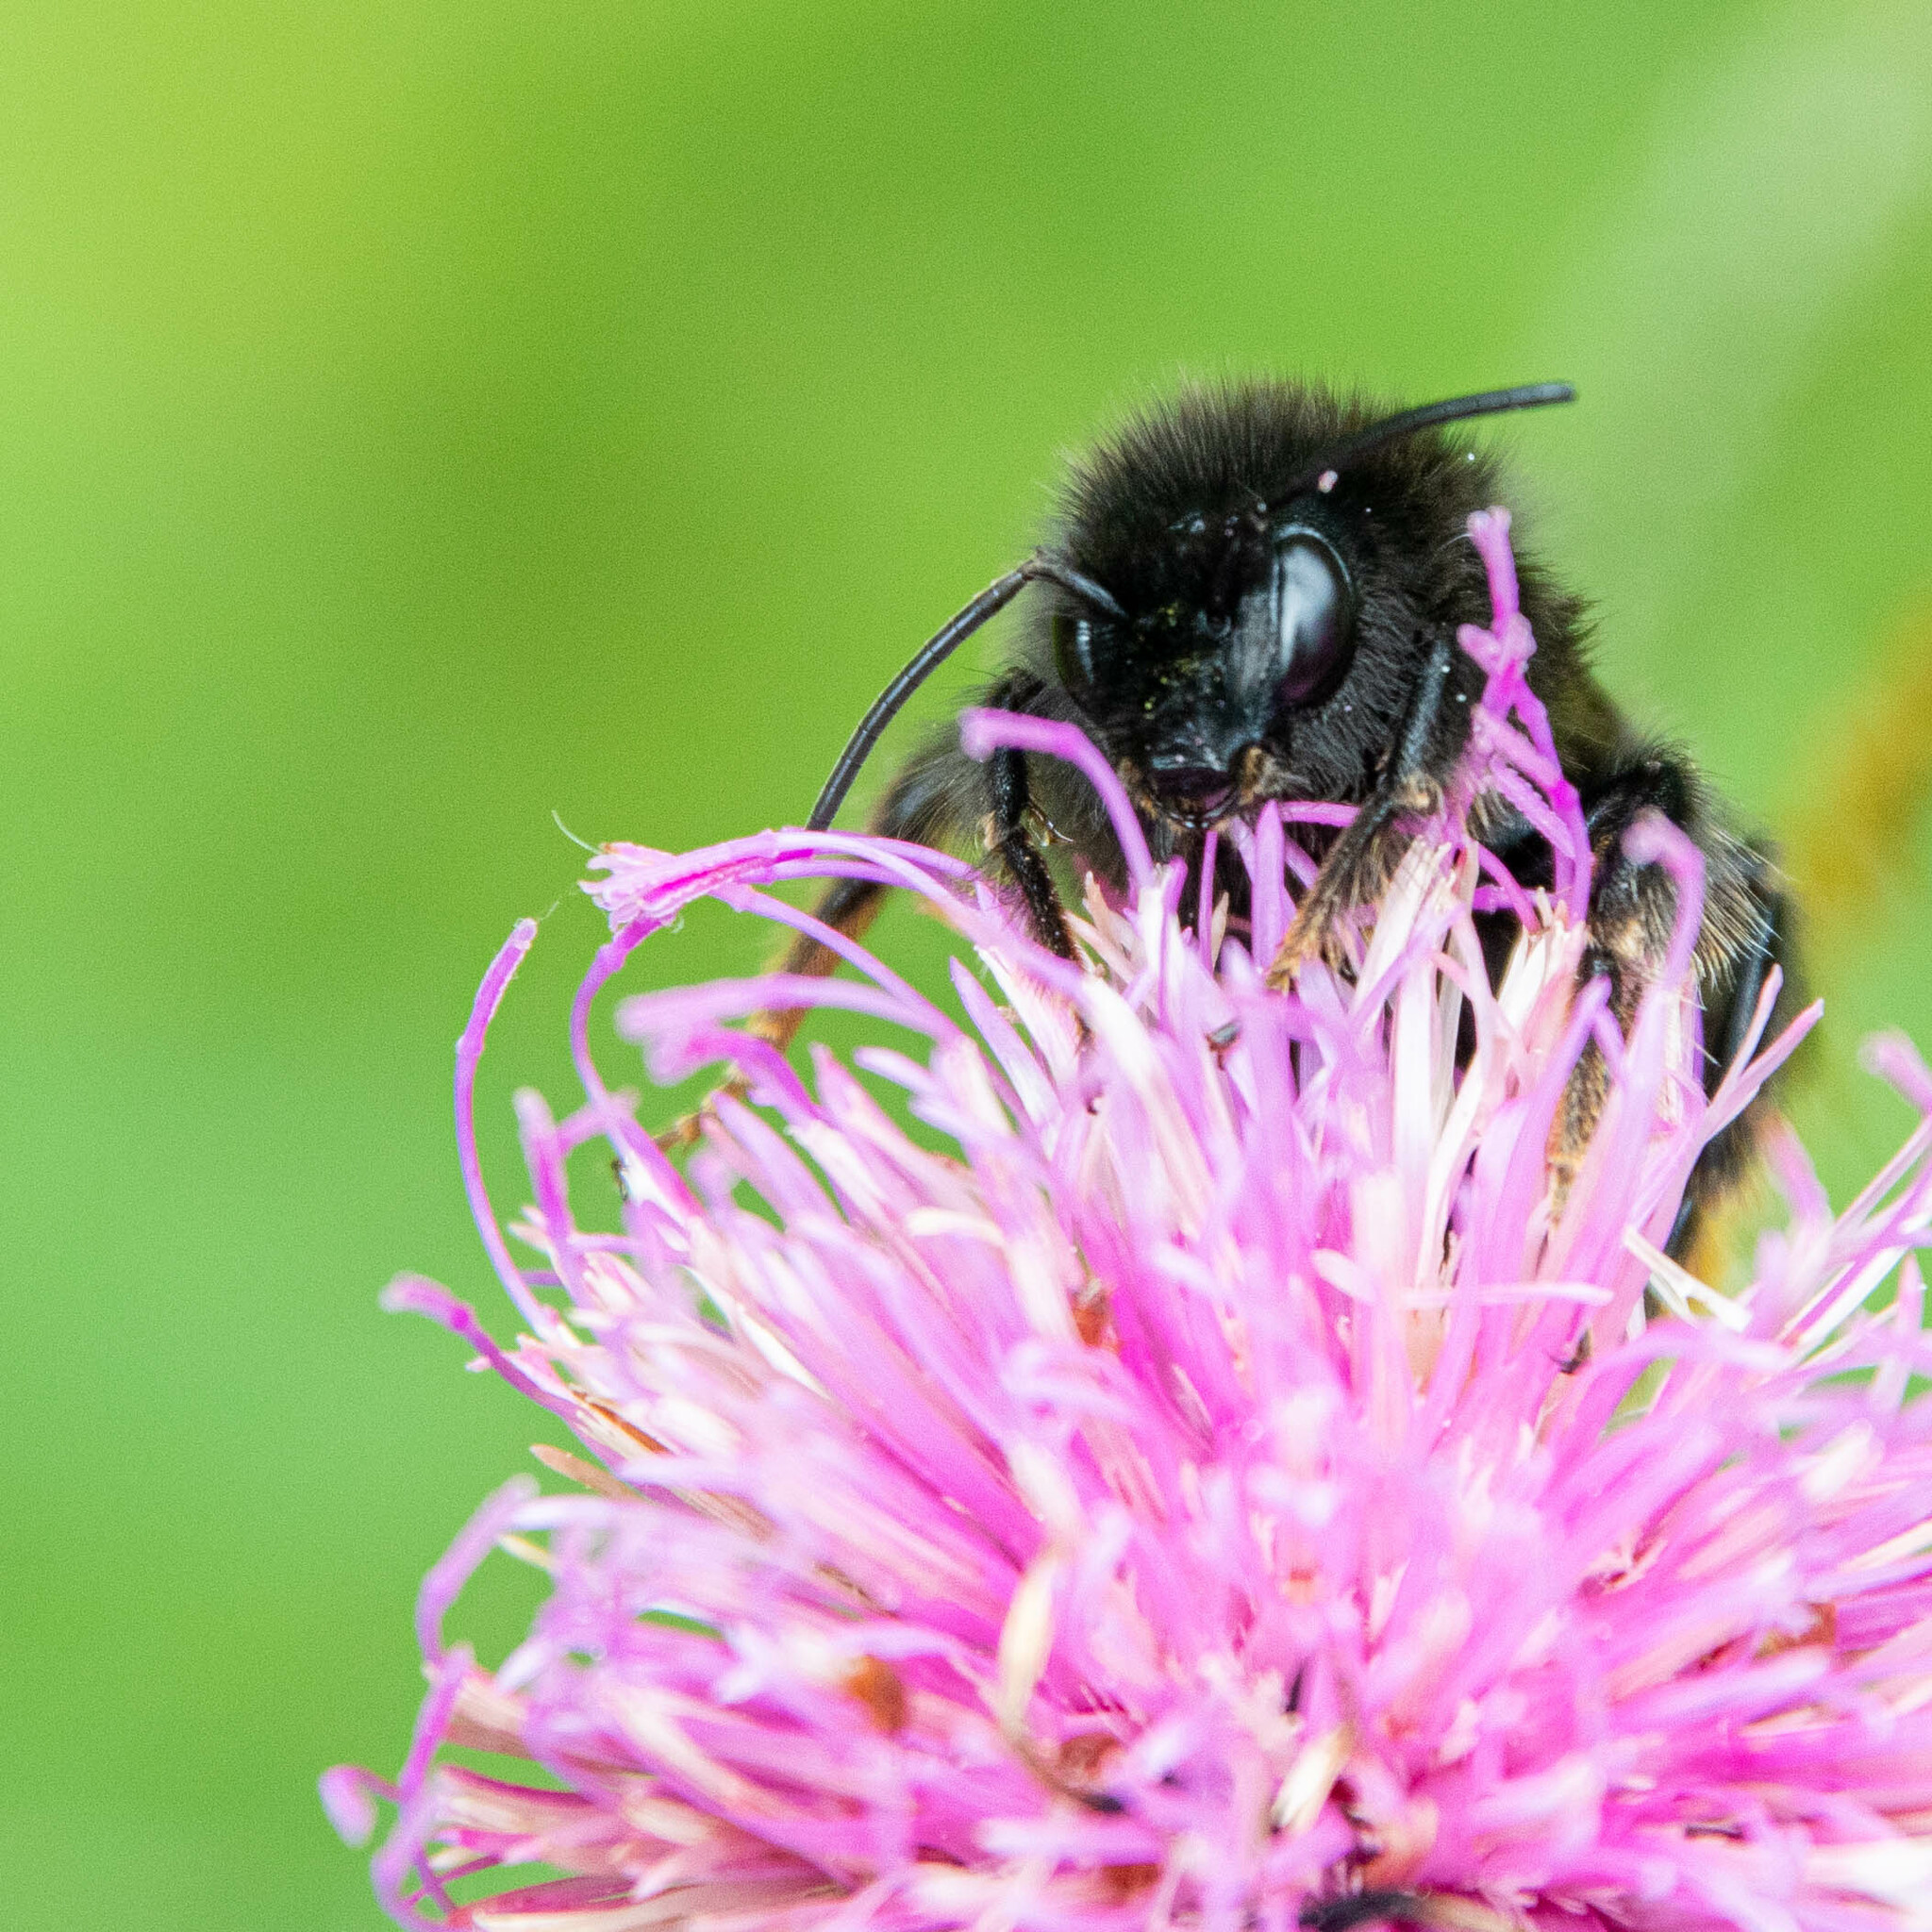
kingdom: Animalia
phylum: Arthropoda
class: Insecta
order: Hymenoptera
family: Apidae
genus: Bombus
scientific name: Bombus rupestris
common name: Hill cuckoo-bee
